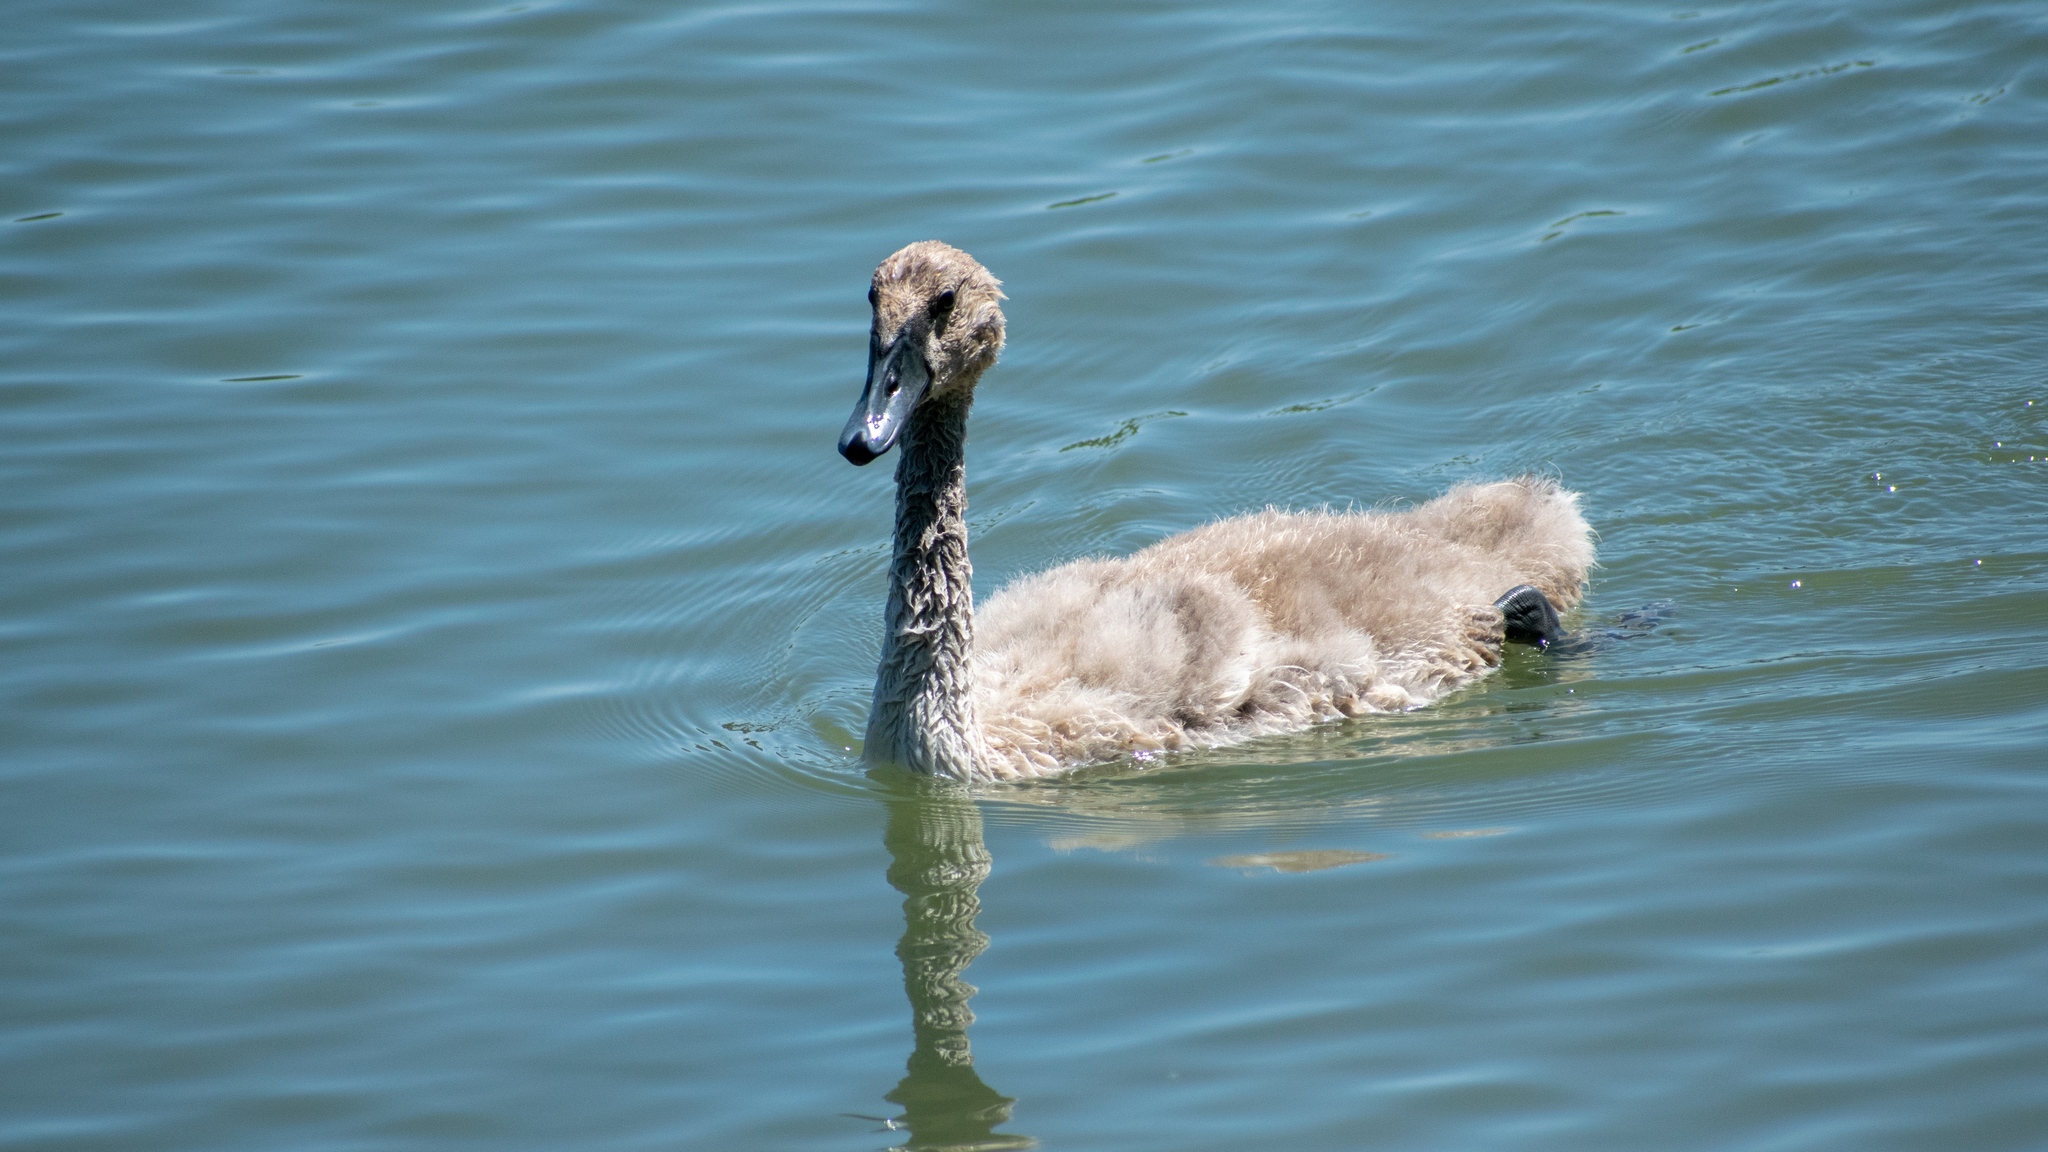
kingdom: Animalia
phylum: Chordata
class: Aves
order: Anseriformes
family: Anatidae
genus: Cygnus
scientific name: Cygnus olor
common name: Mute swan
